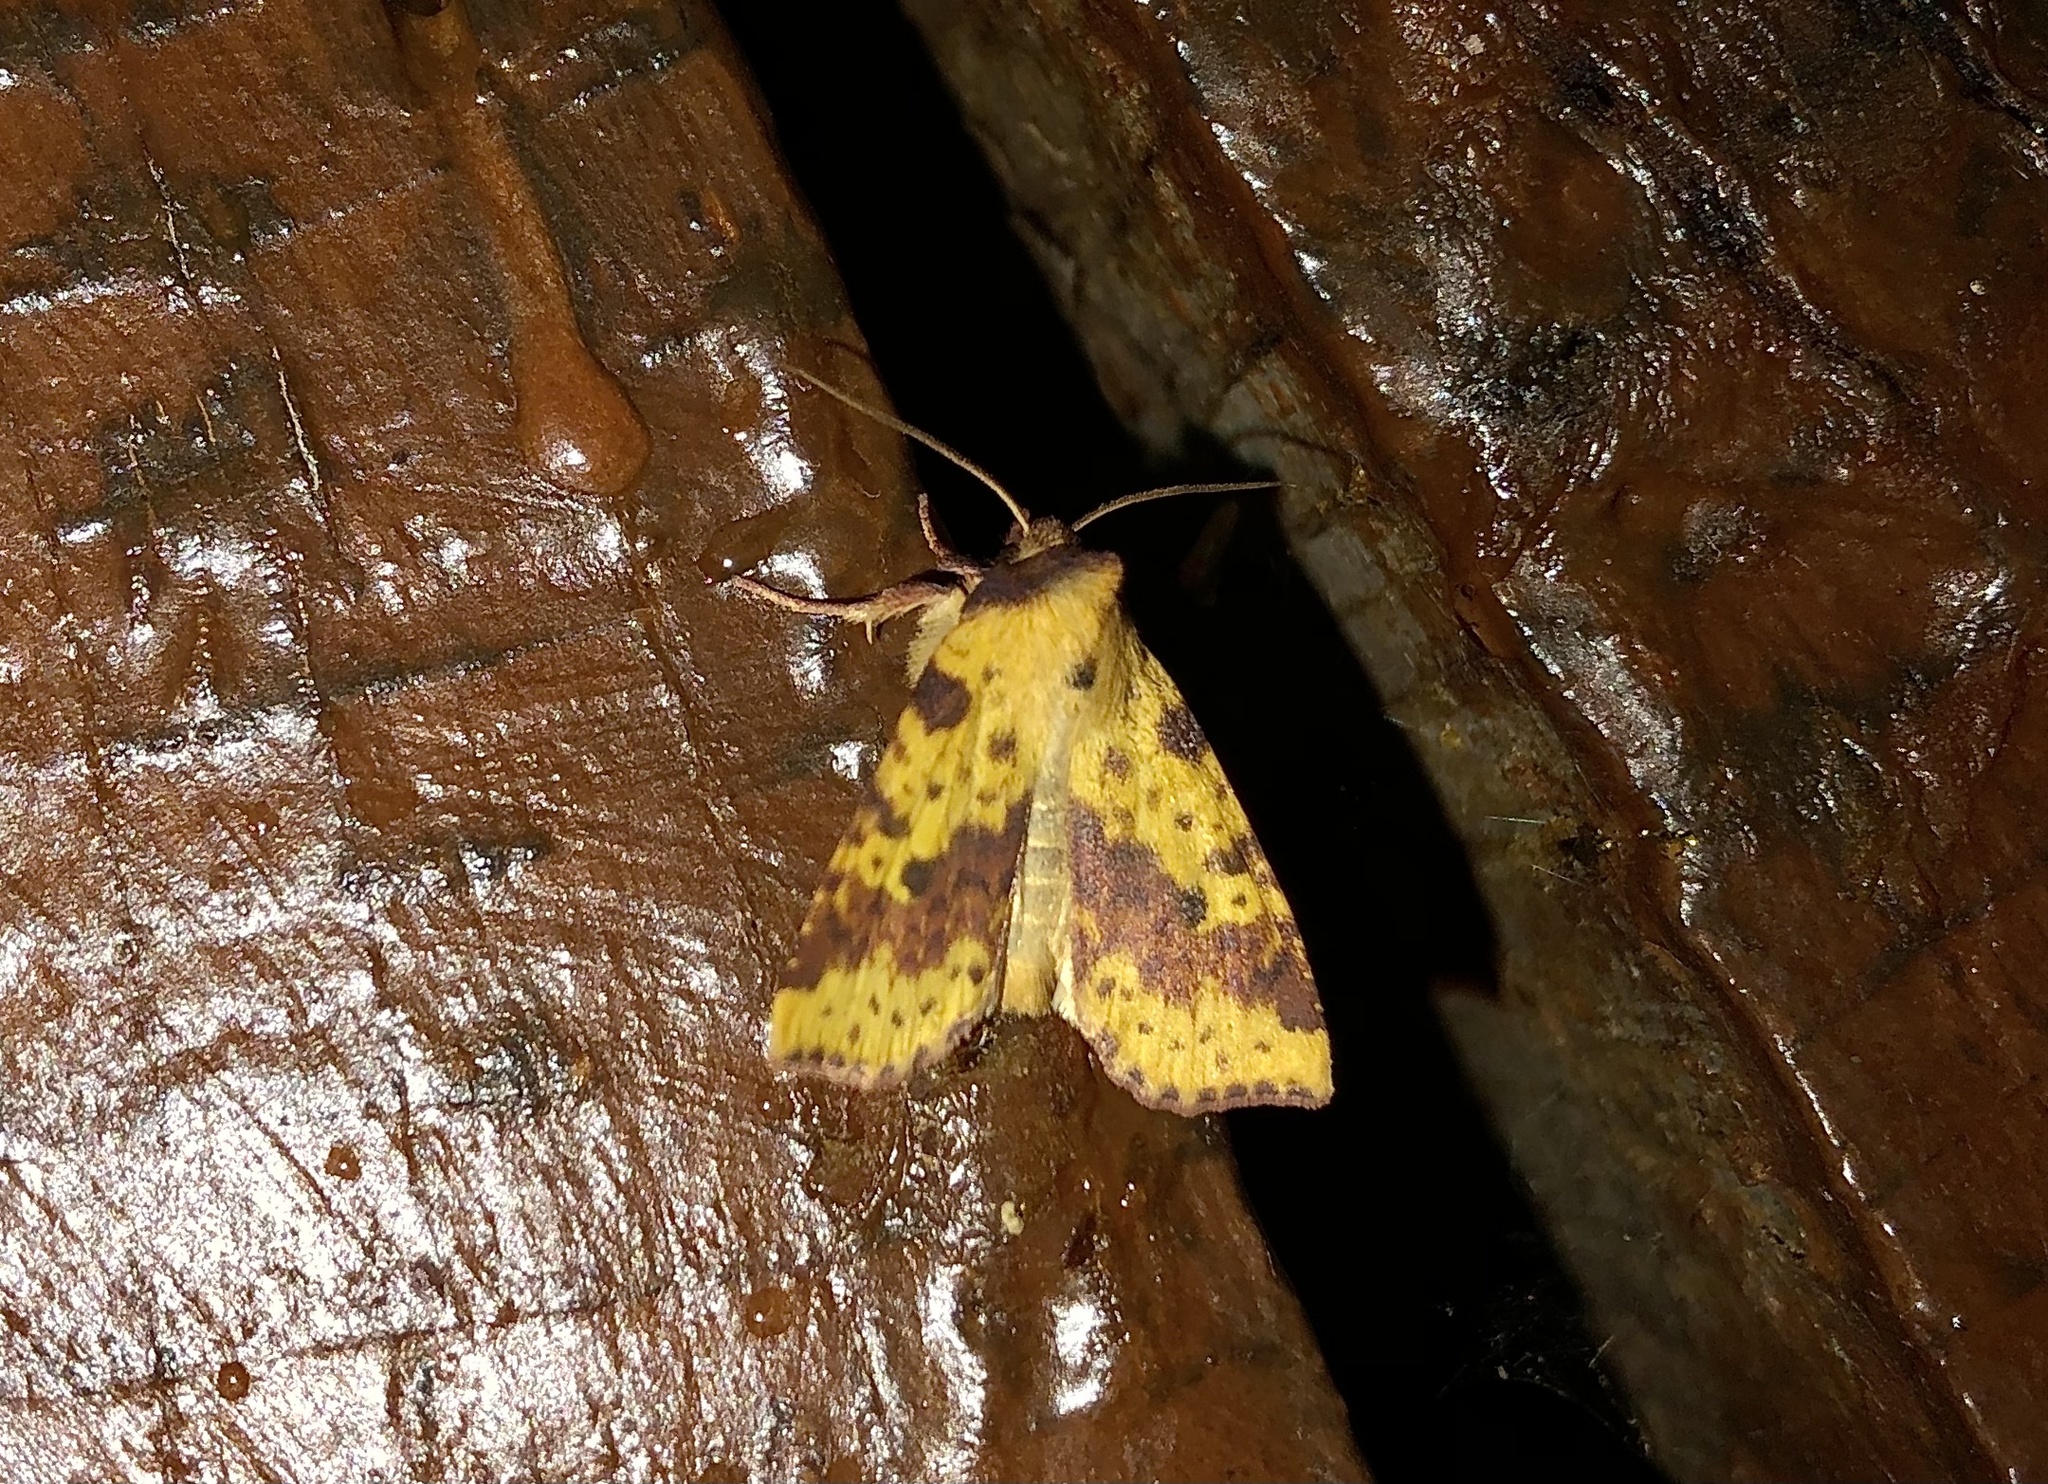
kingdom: Animalia
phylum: Arthropoda
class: Insecta
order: Lepidoptera
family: Noctuidae
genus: Xanthia
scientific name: Xanthia tatago
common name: Pink-banded sallow
